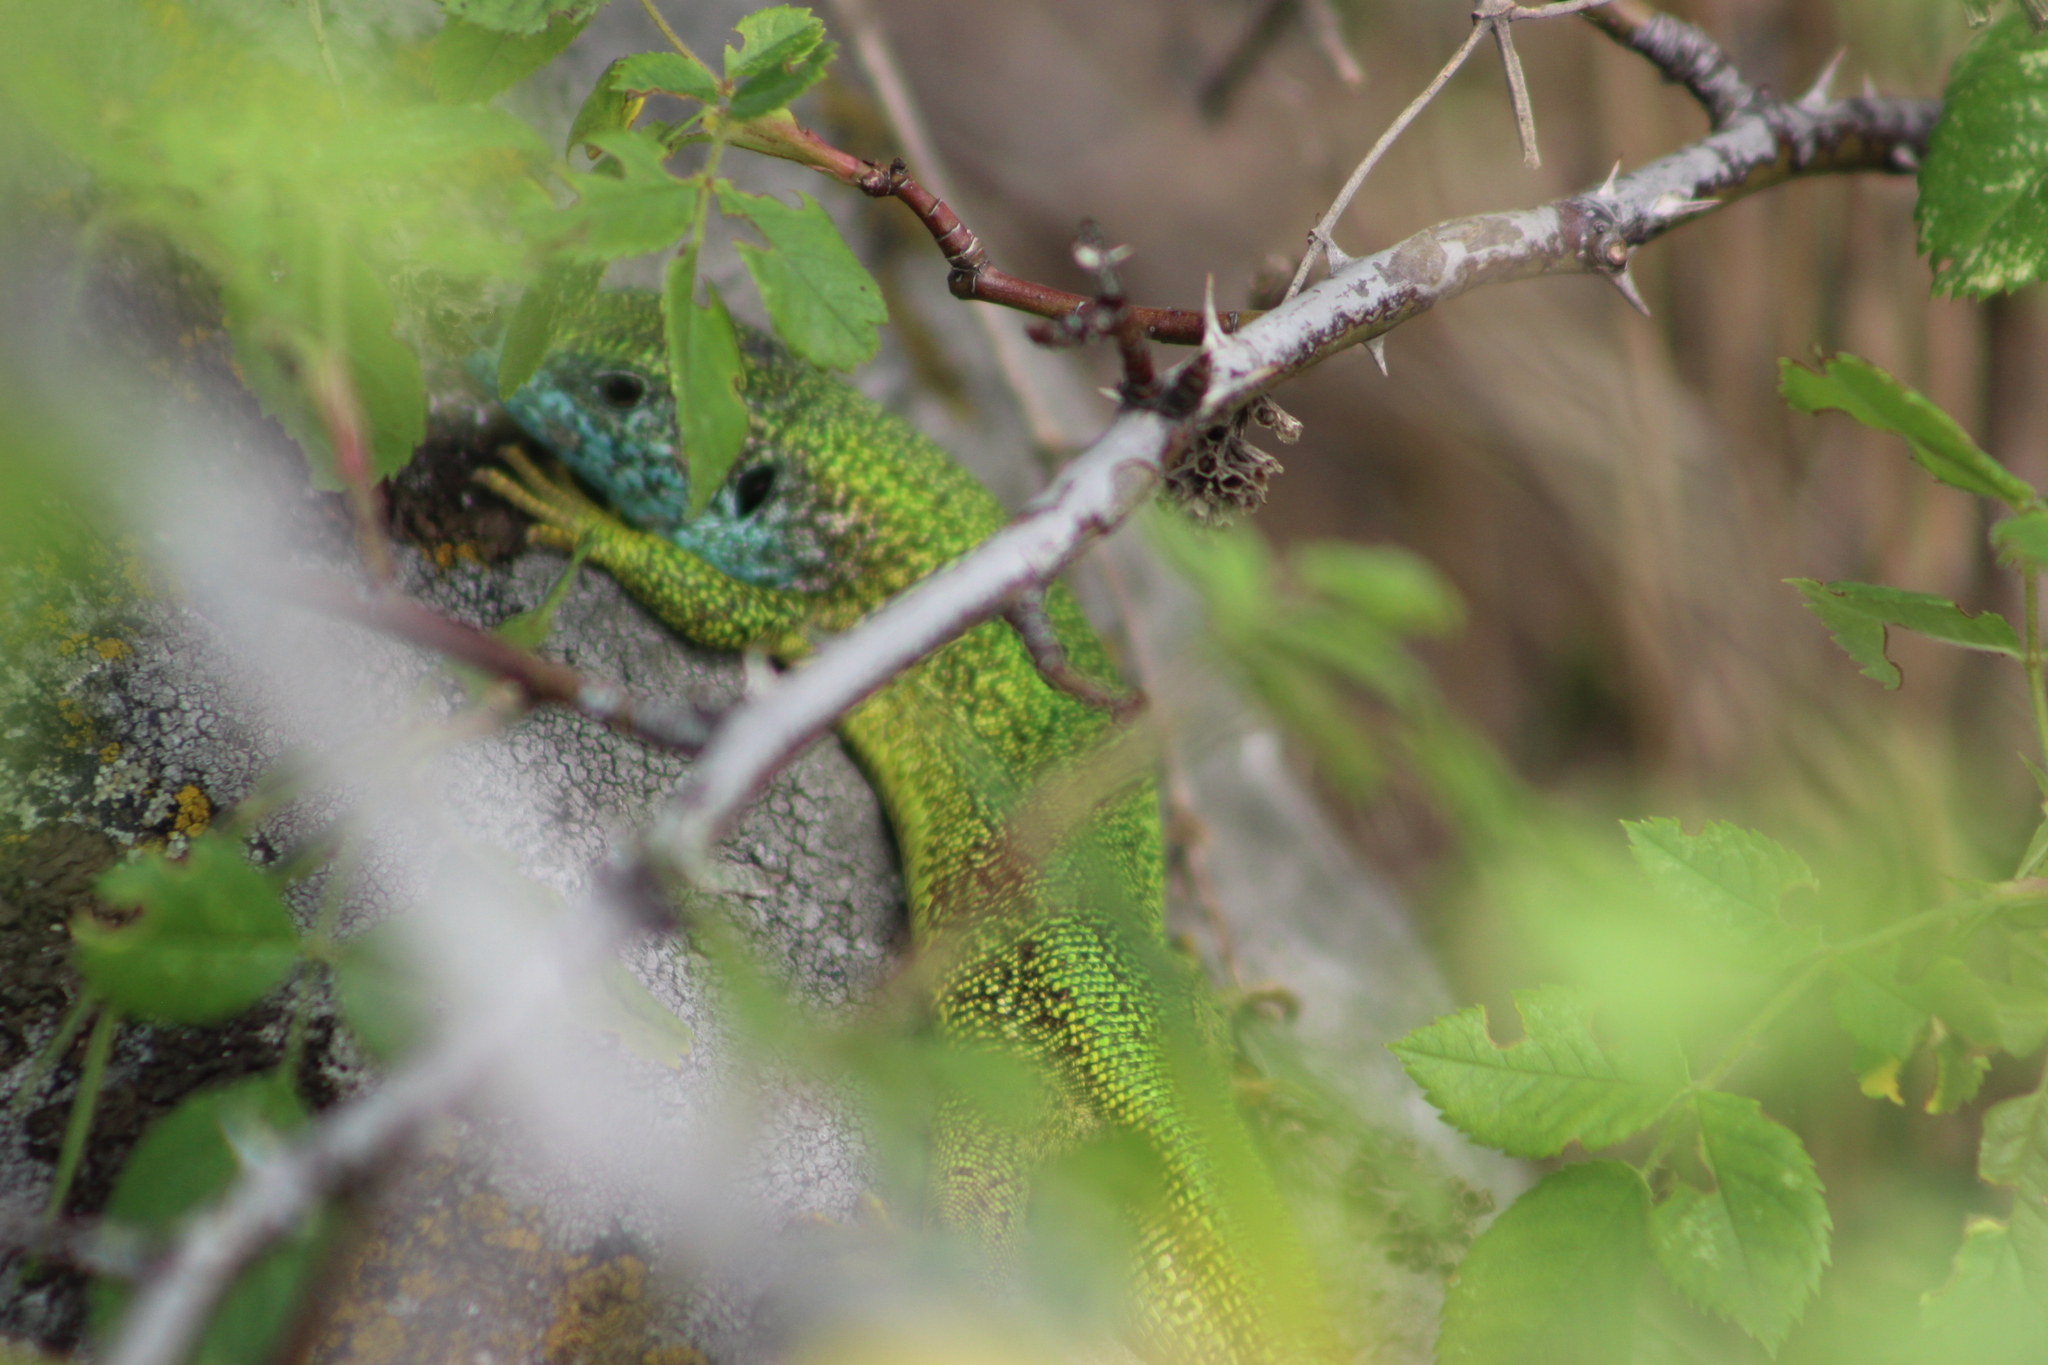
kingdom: Animalia
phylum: Chordata
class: Squamata
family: Lacertidae
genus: Lacerta
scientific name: Lacerta viridis
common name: European green lizard
